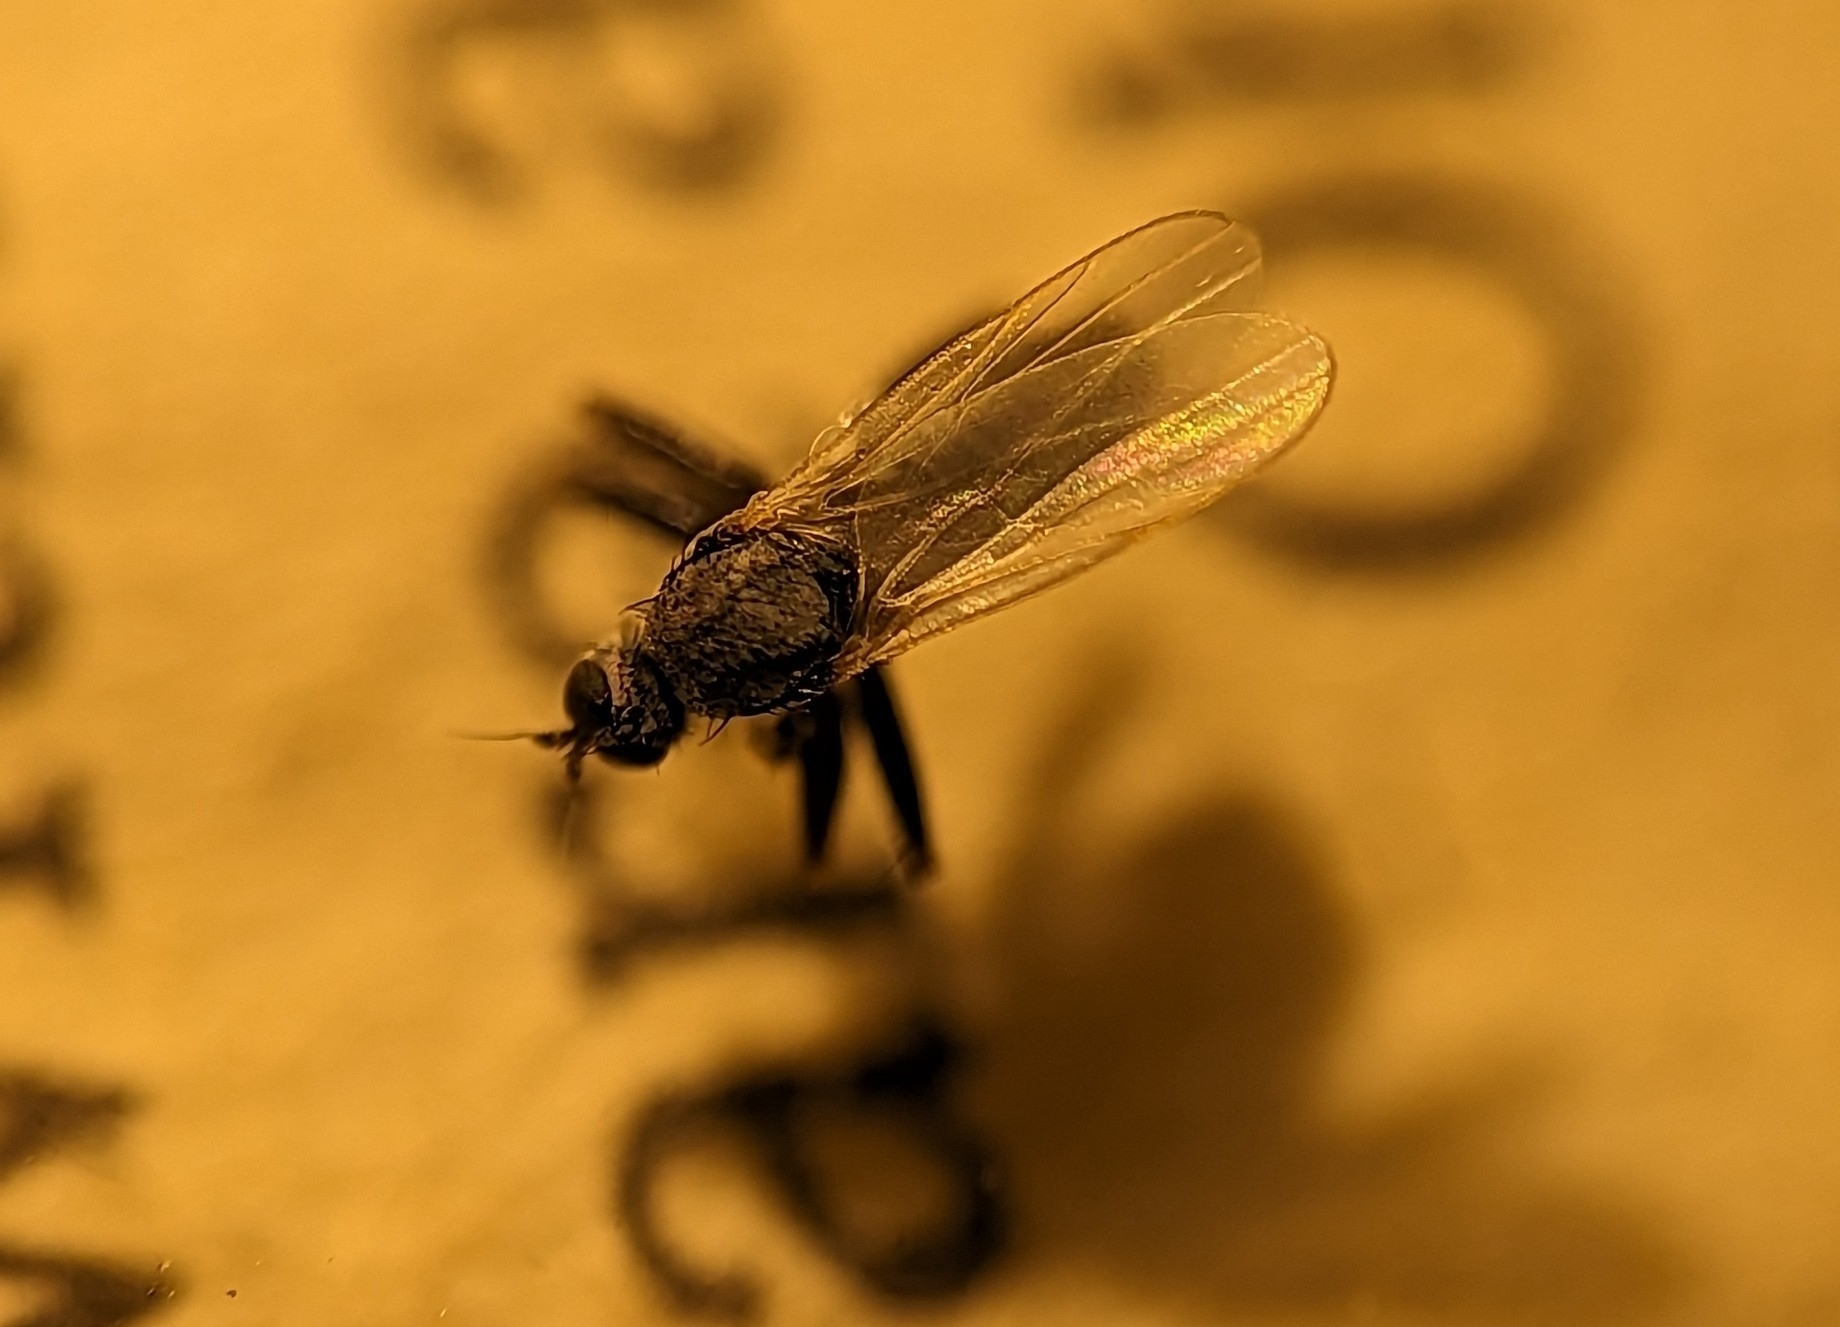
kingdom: Animalia
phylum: Arthropoda
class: Insecta
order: Diptera
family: Hybotidae
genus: Chersodromia
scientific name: Chersodromia inusitata
